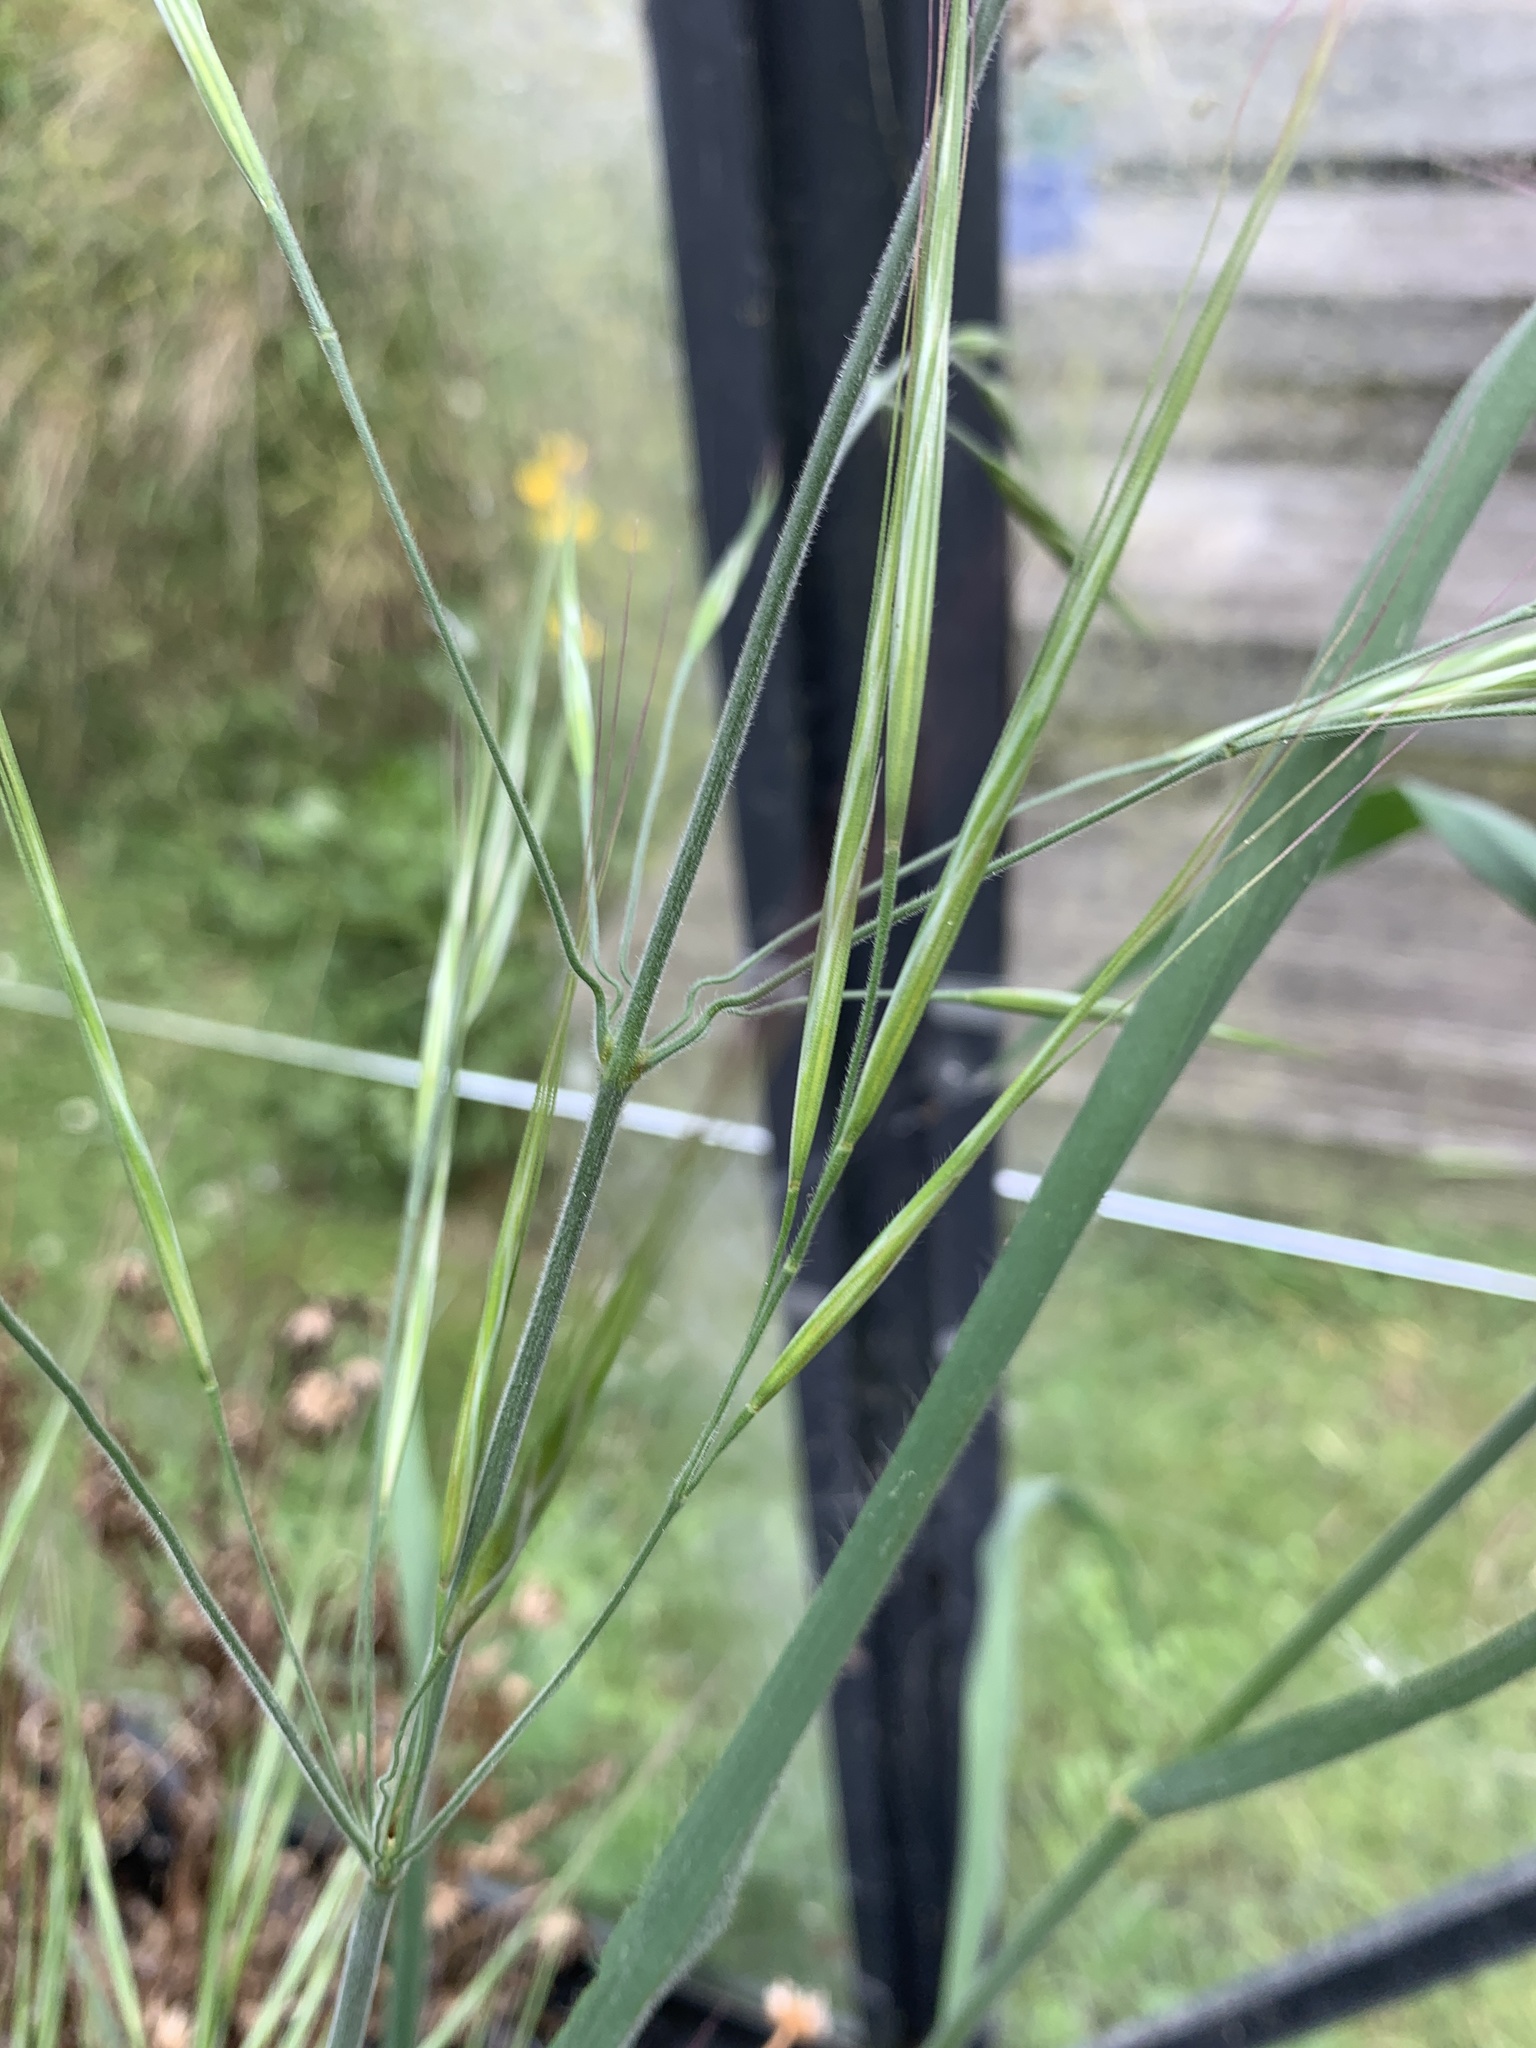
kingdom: Plantae
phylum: Tracheophyta
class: Liliopsida
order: Poales
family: Poaceae
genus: Bromus
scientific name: Bromus diandrus
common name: Ripgut brome
